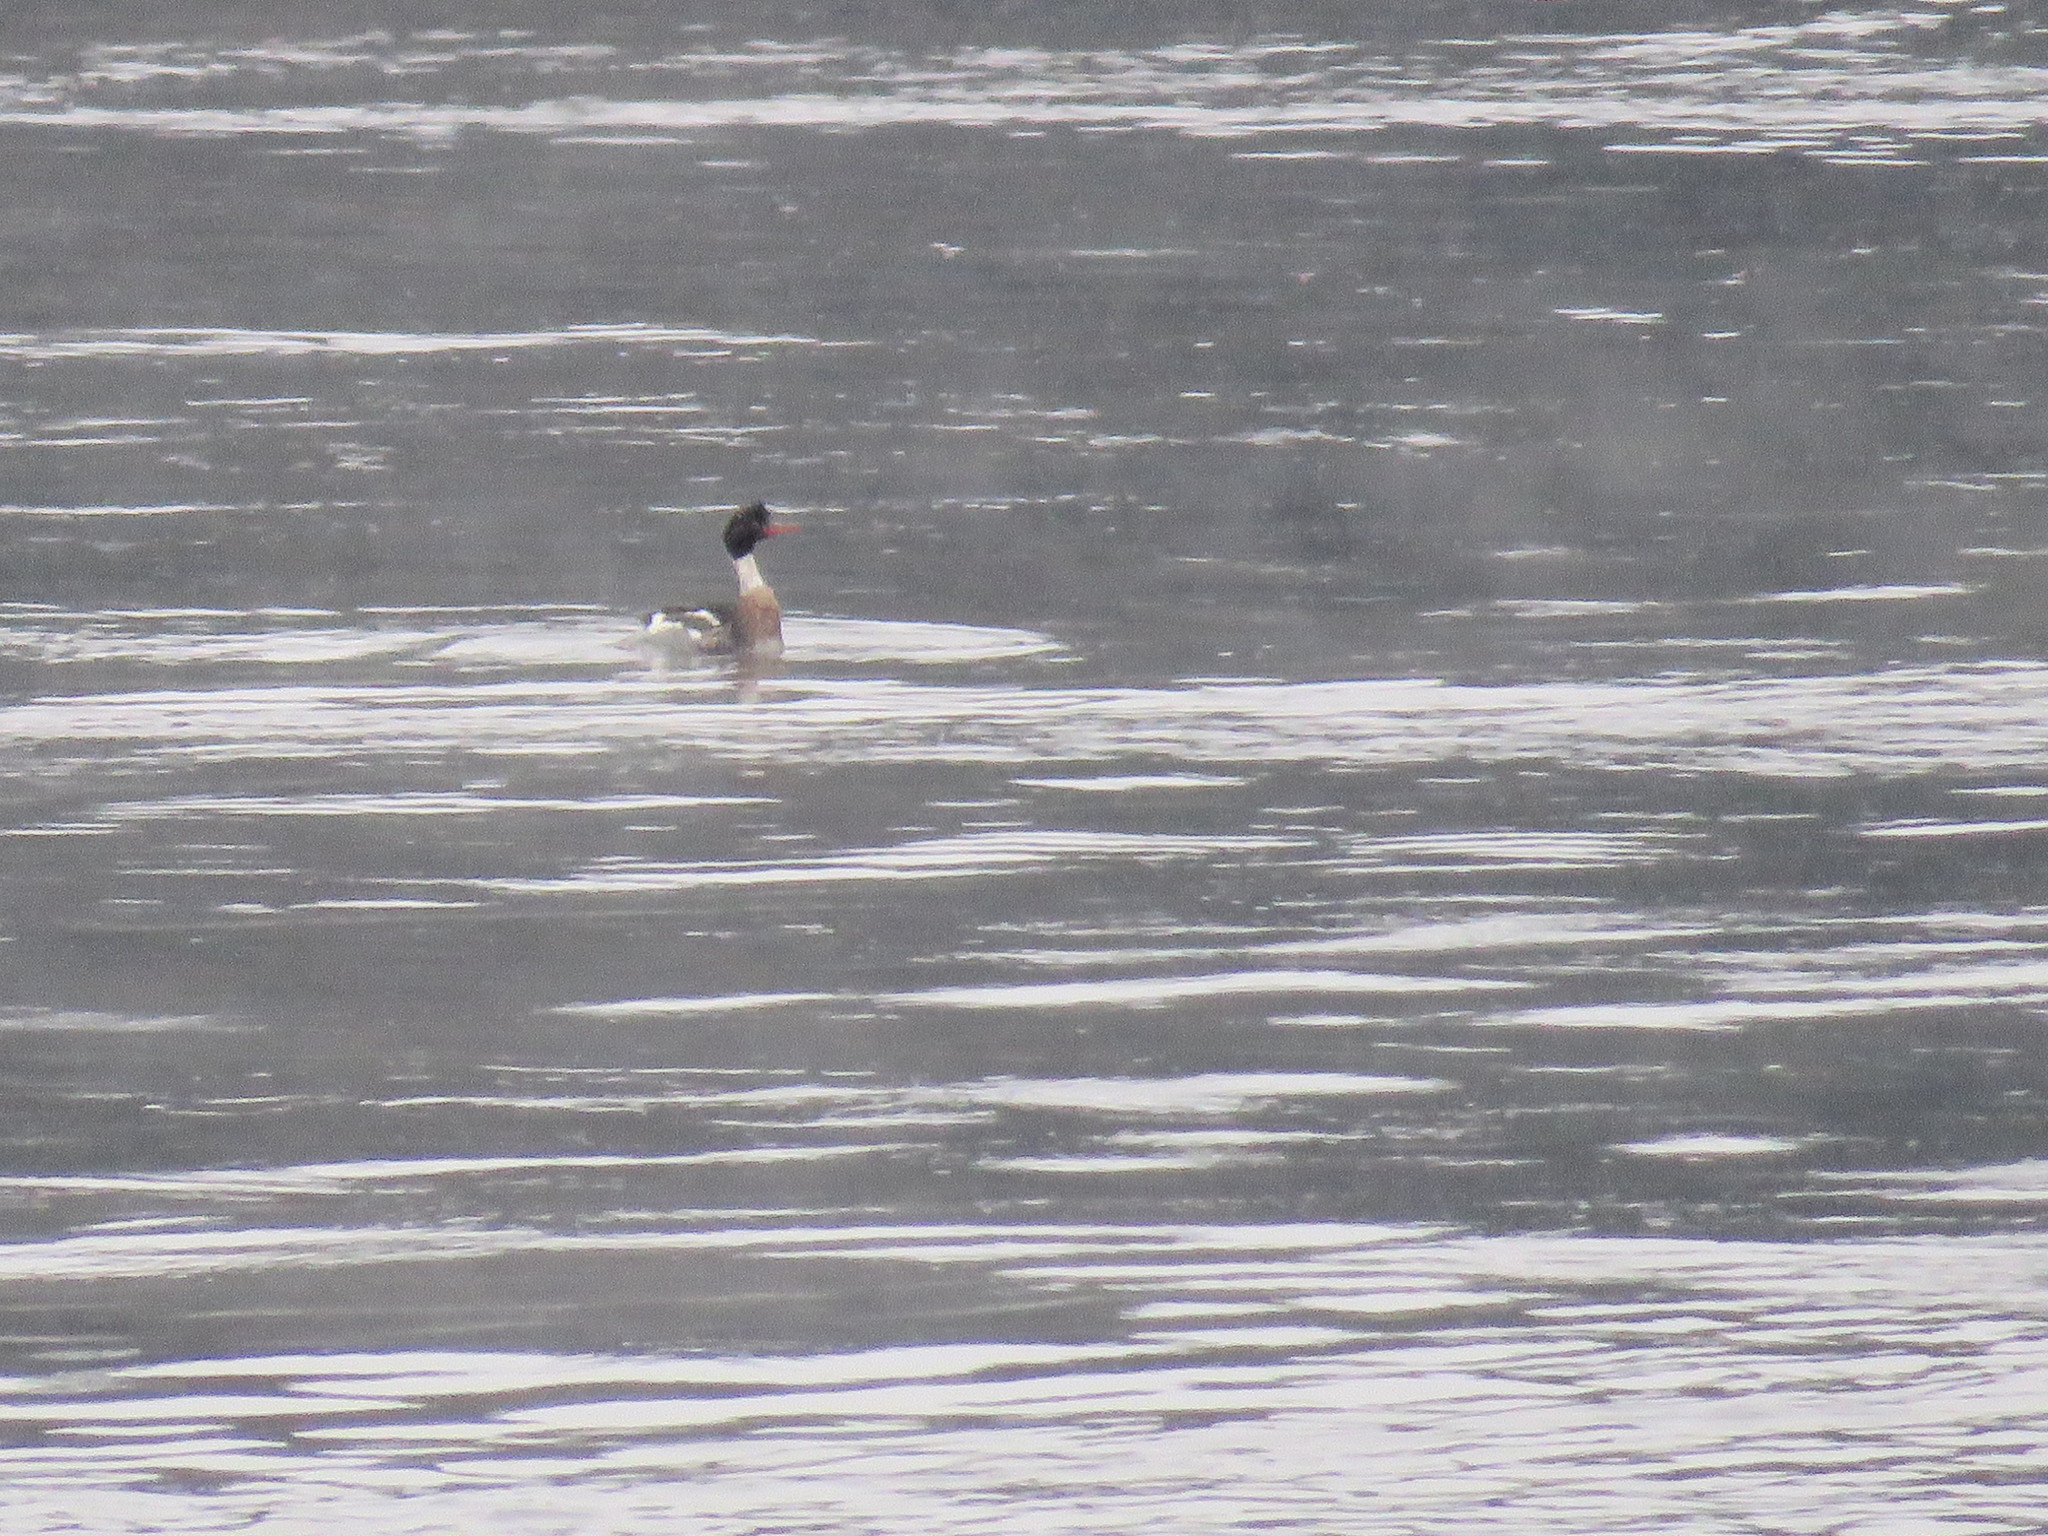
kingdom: Animalia
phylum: Chordata
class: Aves
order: Anseriformes
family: Anatidae
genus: Mergus
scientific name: Mergus serrator
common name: Red-breasted merganser
